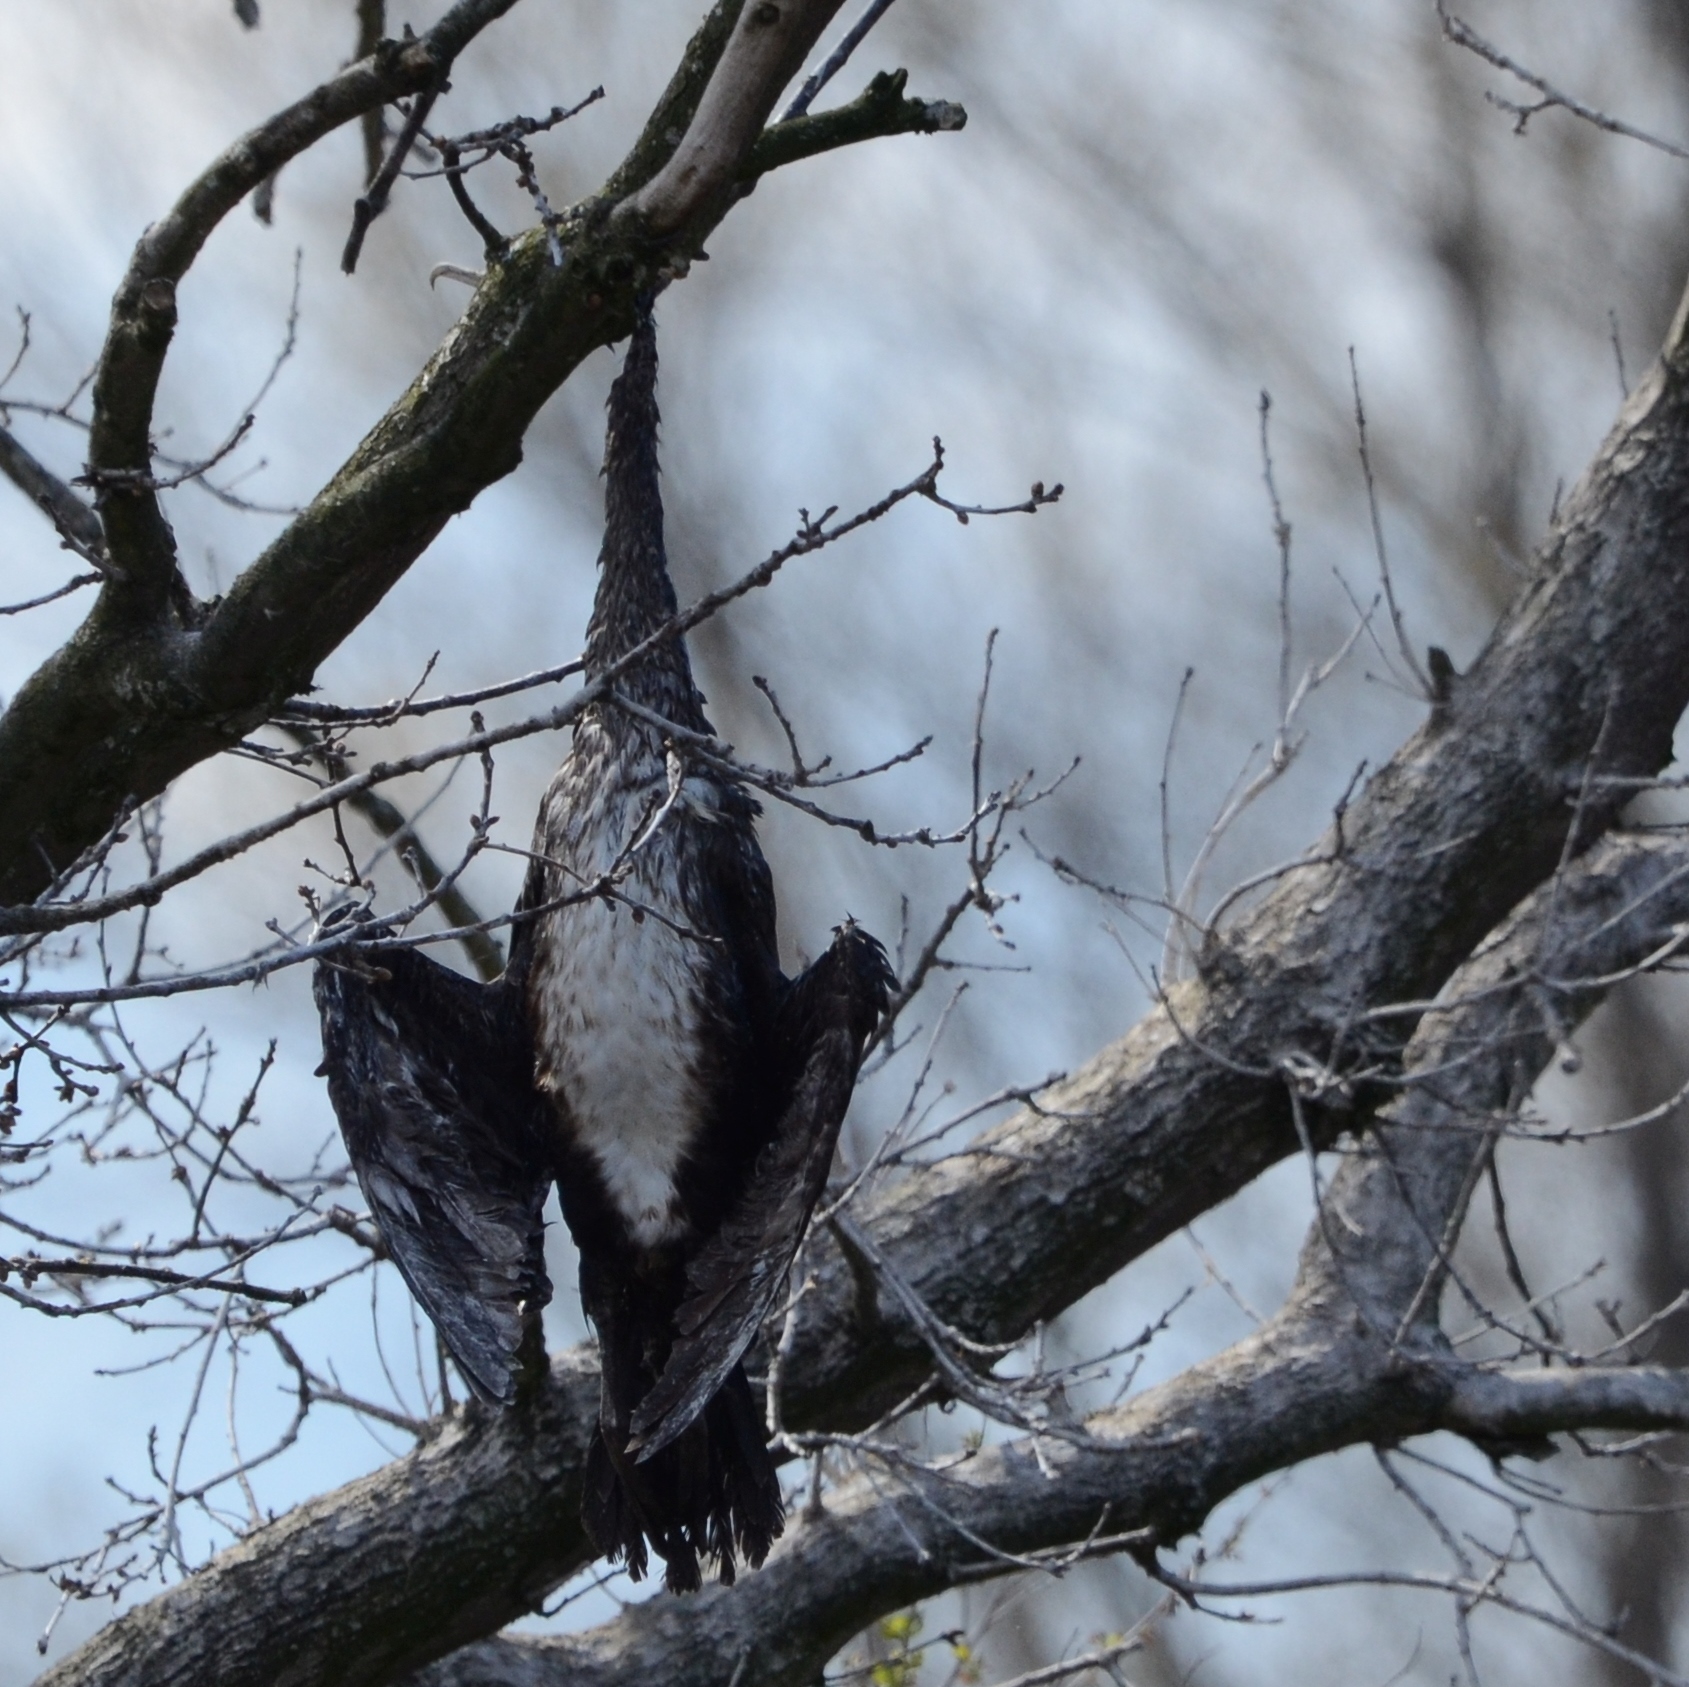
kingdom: Animalia
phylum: Chordata
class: Aves
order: Suliformes
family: Phalacrocoracidae
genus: Phalacrocorax
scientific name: Phalacrocorax carbo
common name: Great cormorant
